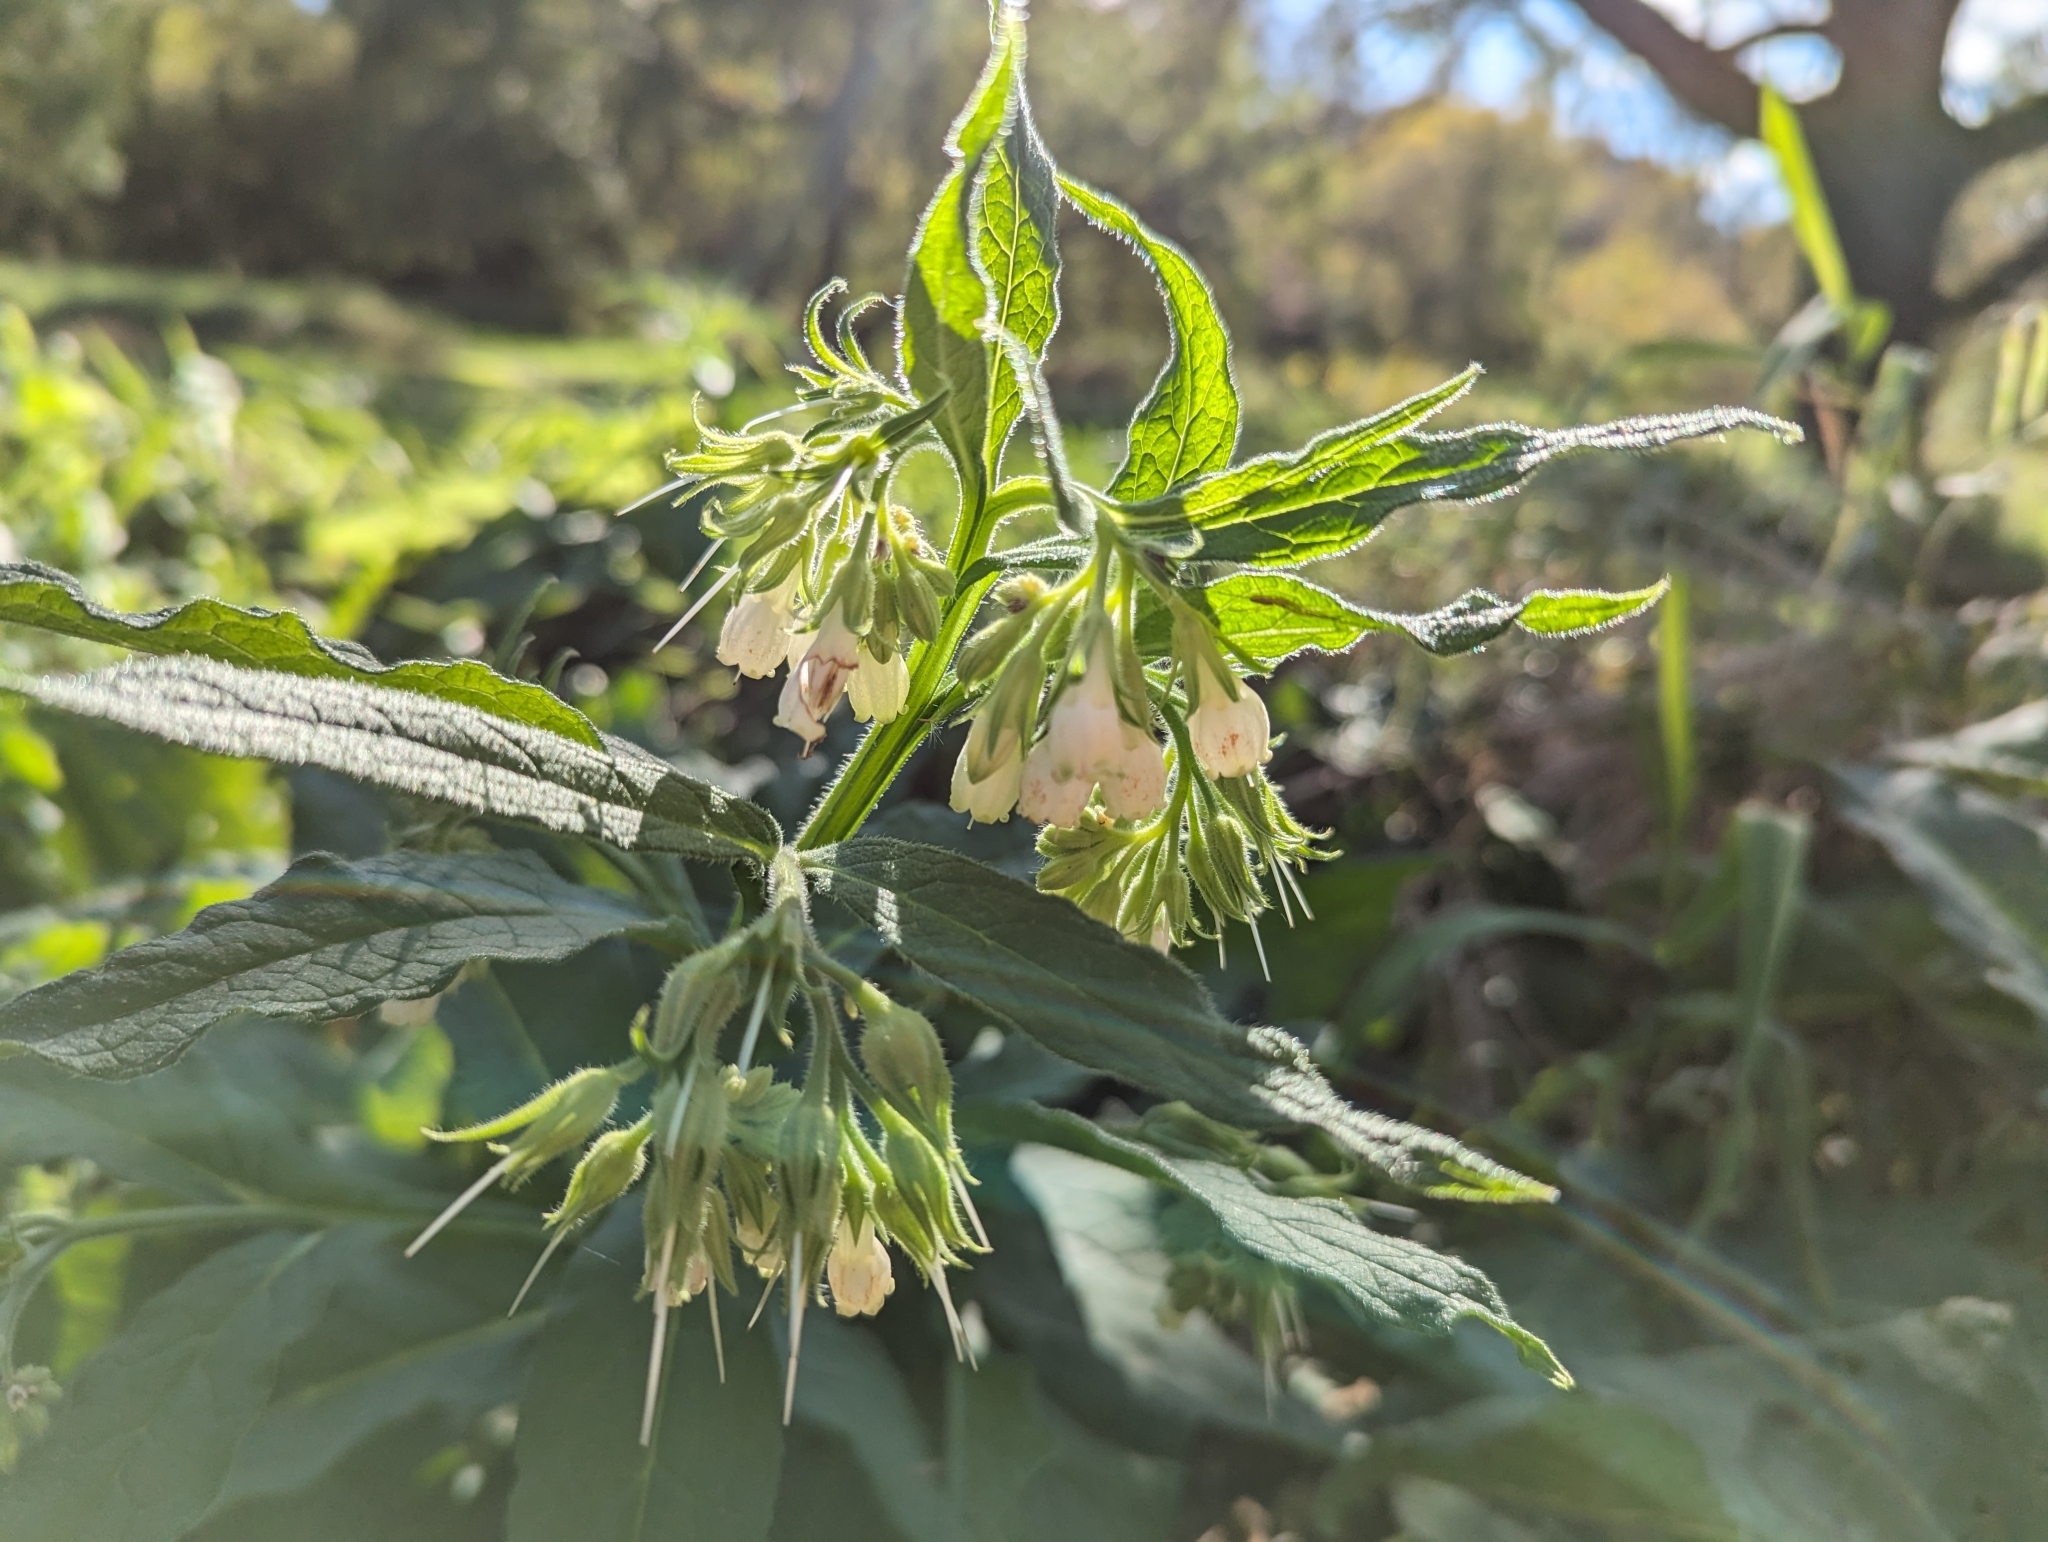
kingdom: Plantae
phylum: Tracheophyta
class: Magnoliopsida
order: Boraginales
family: Boraginaceae
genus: Symphytum
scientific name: Symphytum officinale
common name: Common comfrey
